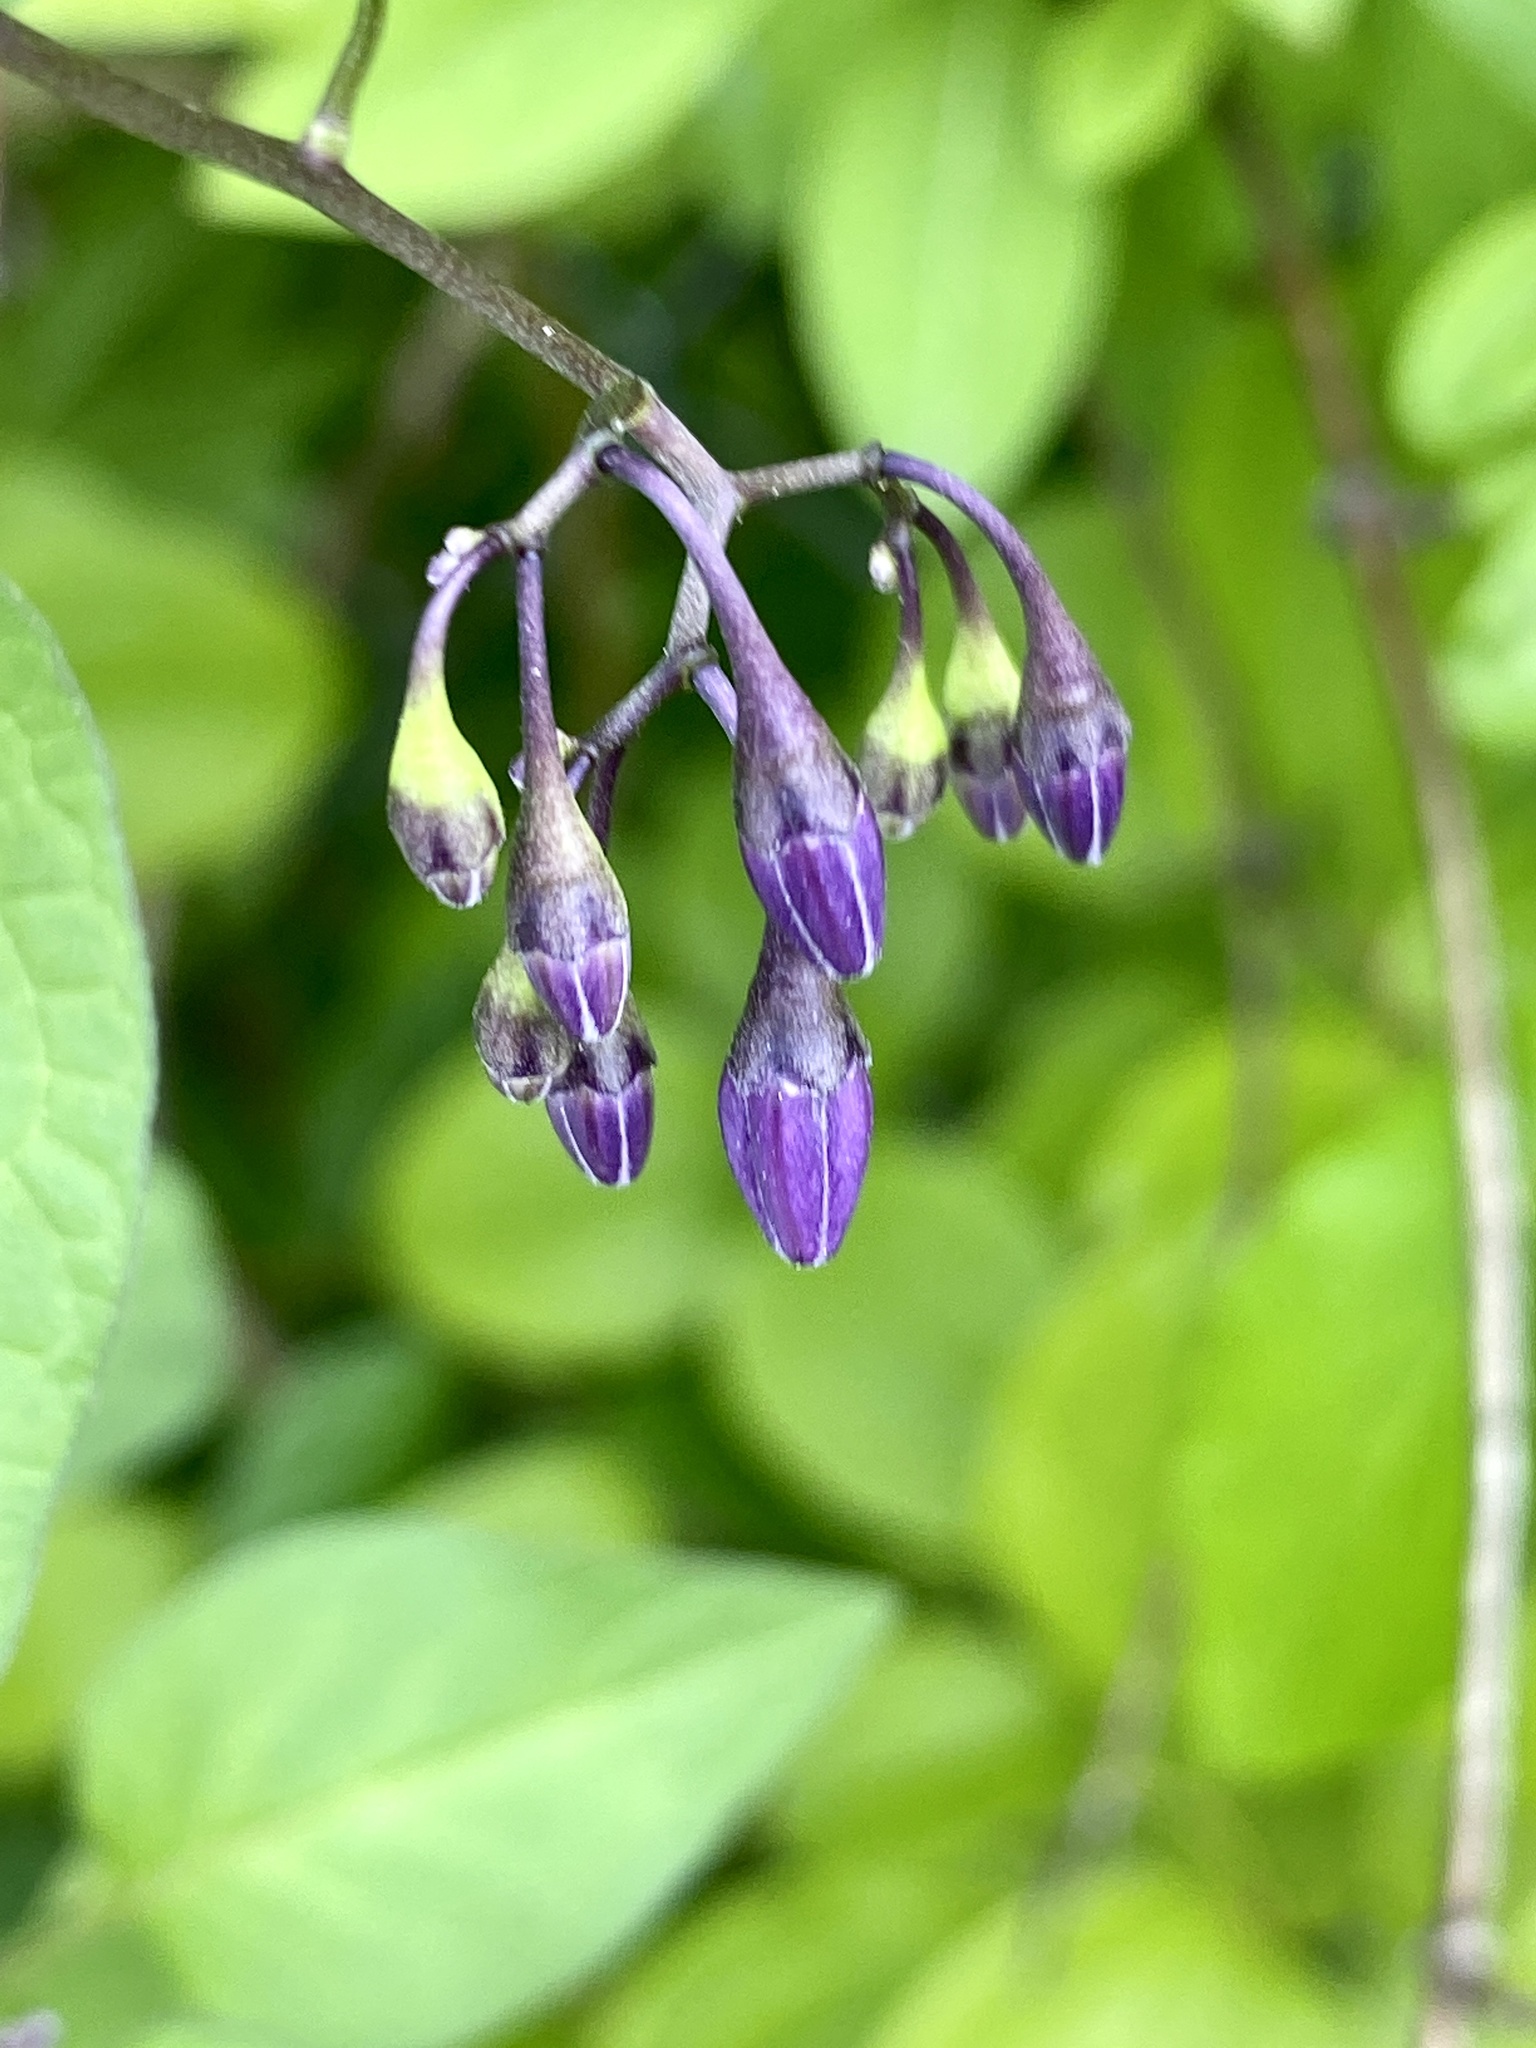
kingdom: Plantae
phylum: Tracheophyta
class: Magnoliopsida
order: Solanales
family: Solanaceae
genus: Solanum
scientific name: Solanum dulcamara
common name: Climbing nightshade
